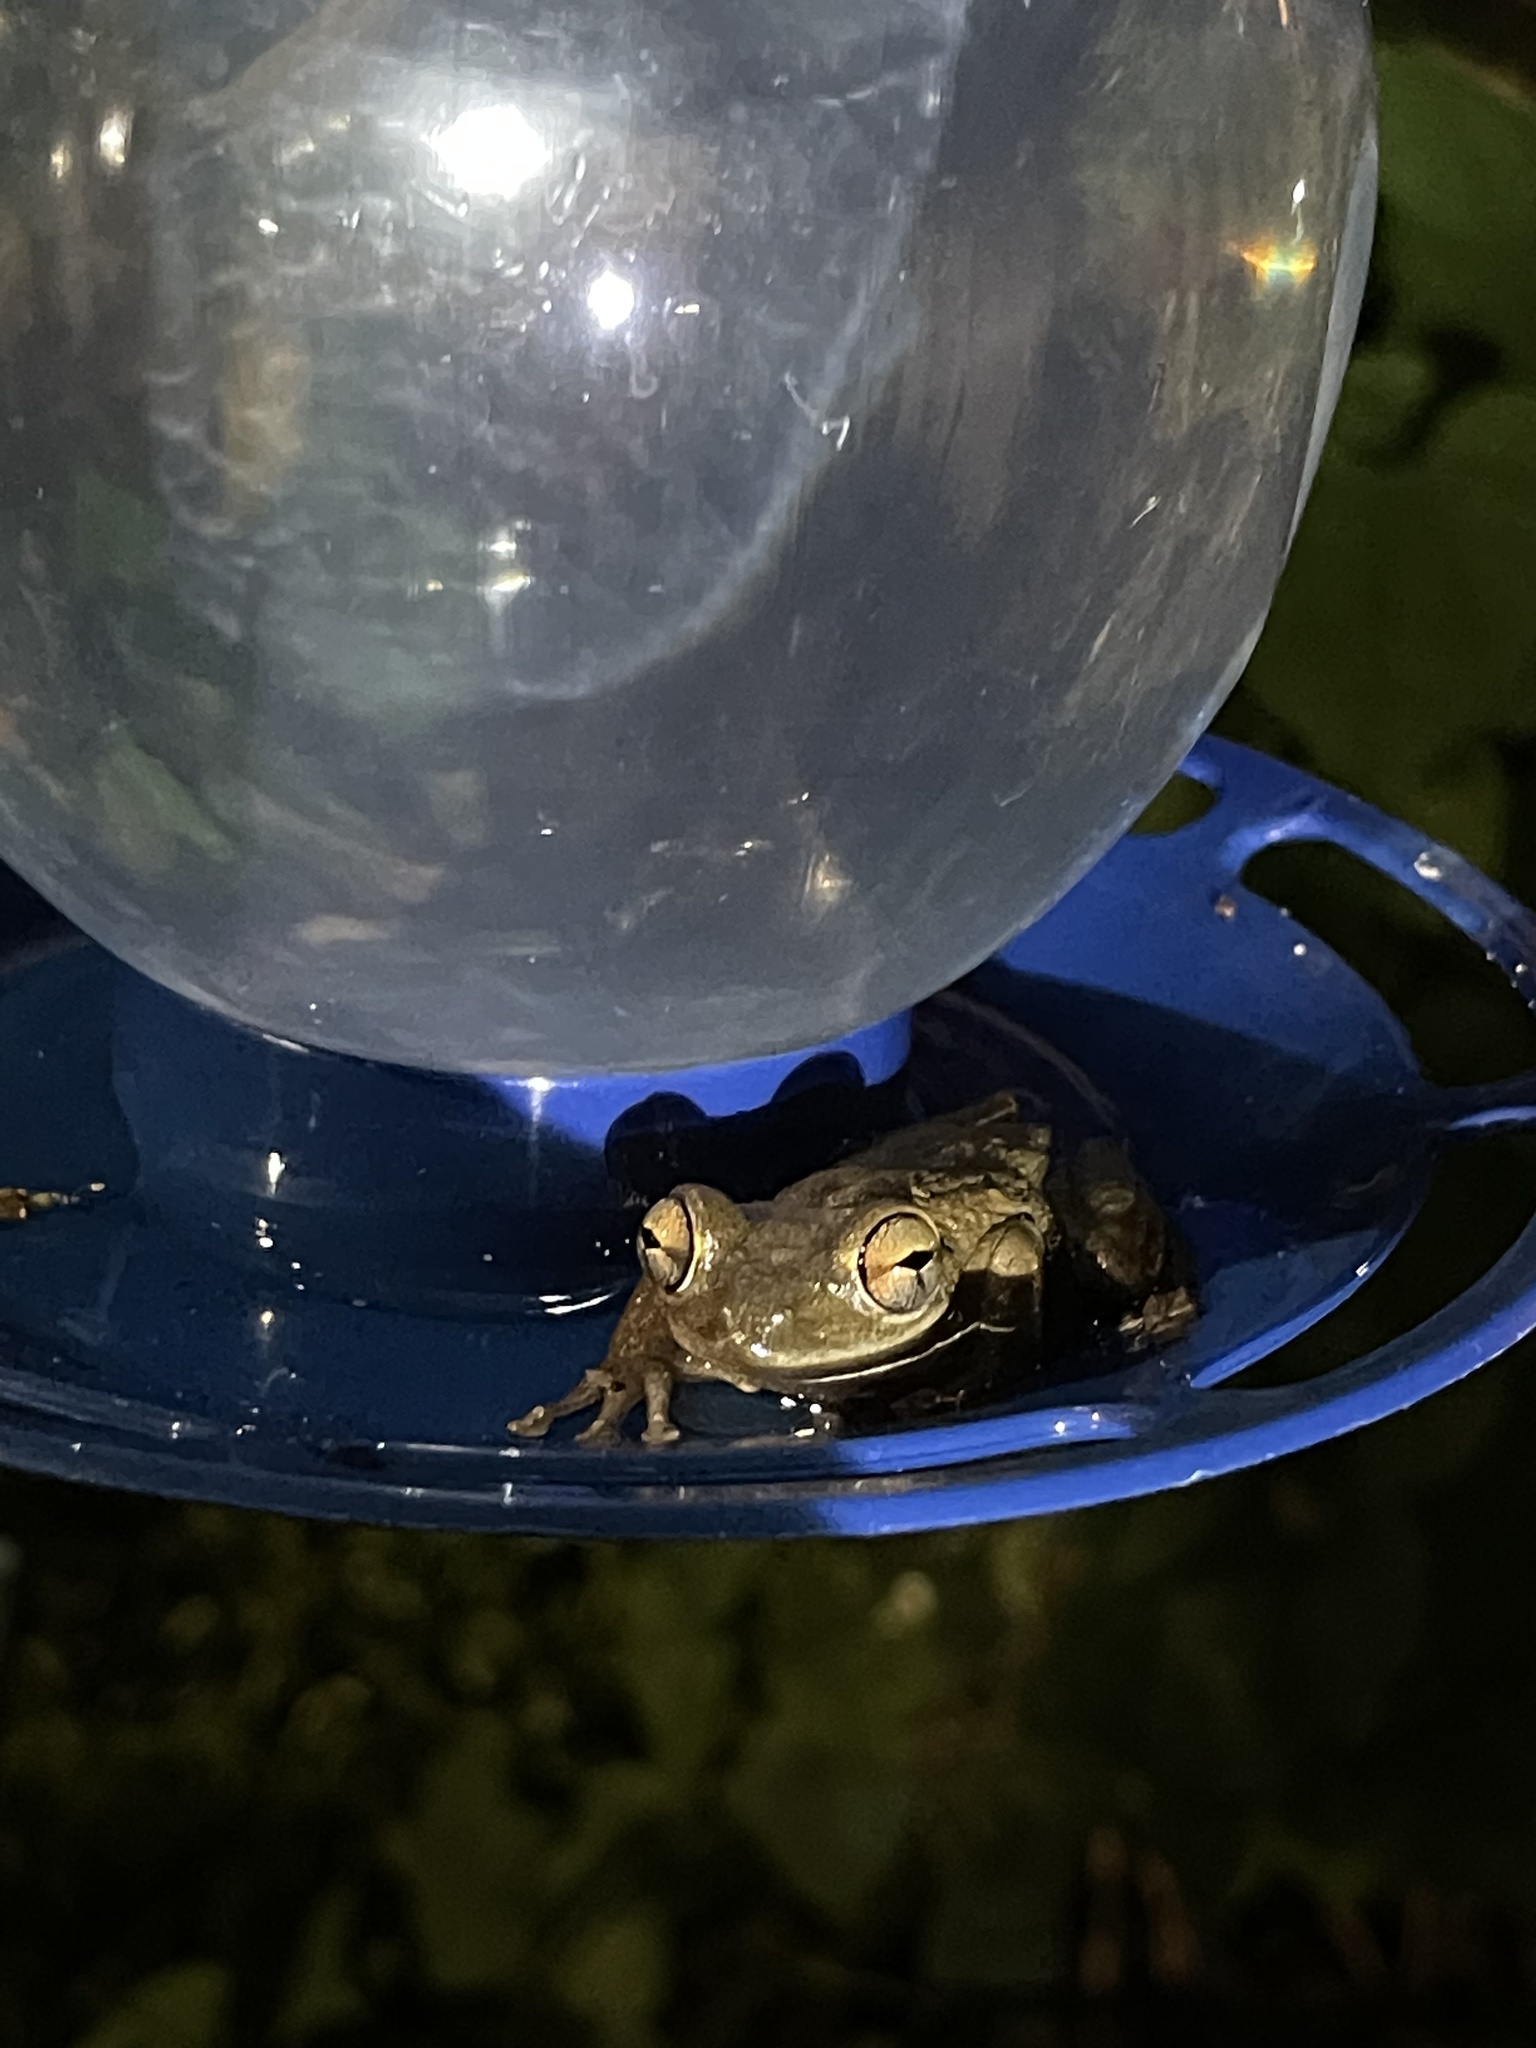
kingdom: Animalia
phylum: Chordata
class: Amphibia
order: Anura
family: Hylidae
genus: Osteopilus
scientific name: Osteopilus septentrionalis
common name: Cuban treefrog
